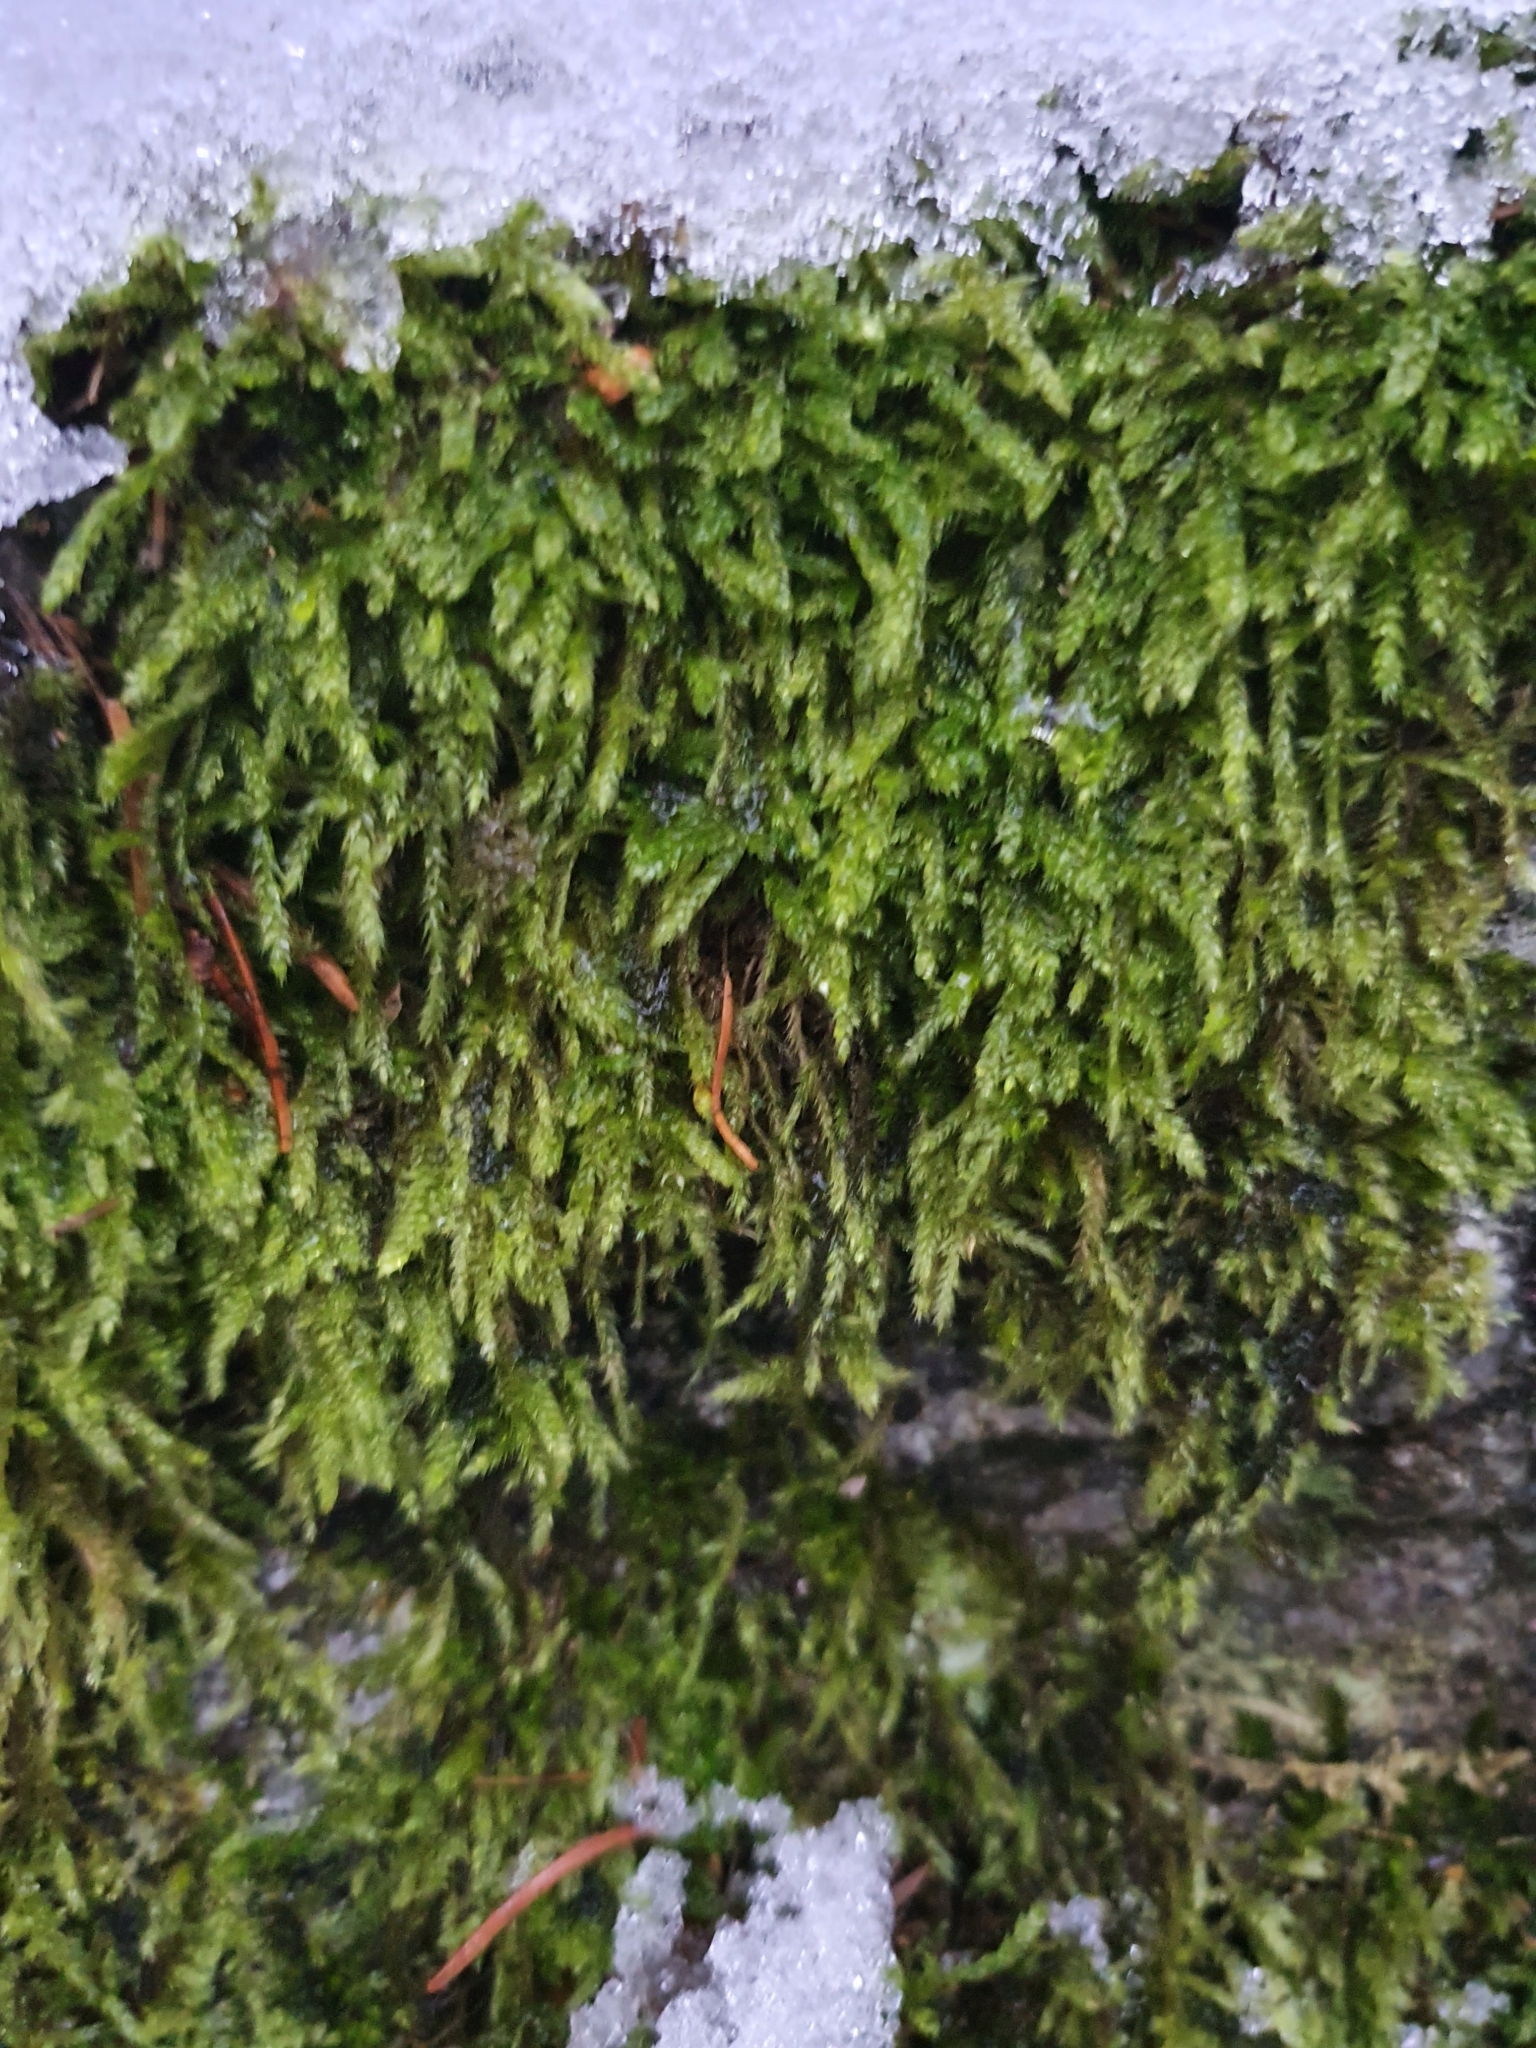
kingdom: Plantae
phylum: Bryophyta
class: Bryopsida
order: Hypnales
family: Hypnaceae
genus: Hypnum
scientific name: Hypnum cupressiforme
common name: Cypress-leaved plait-moss
